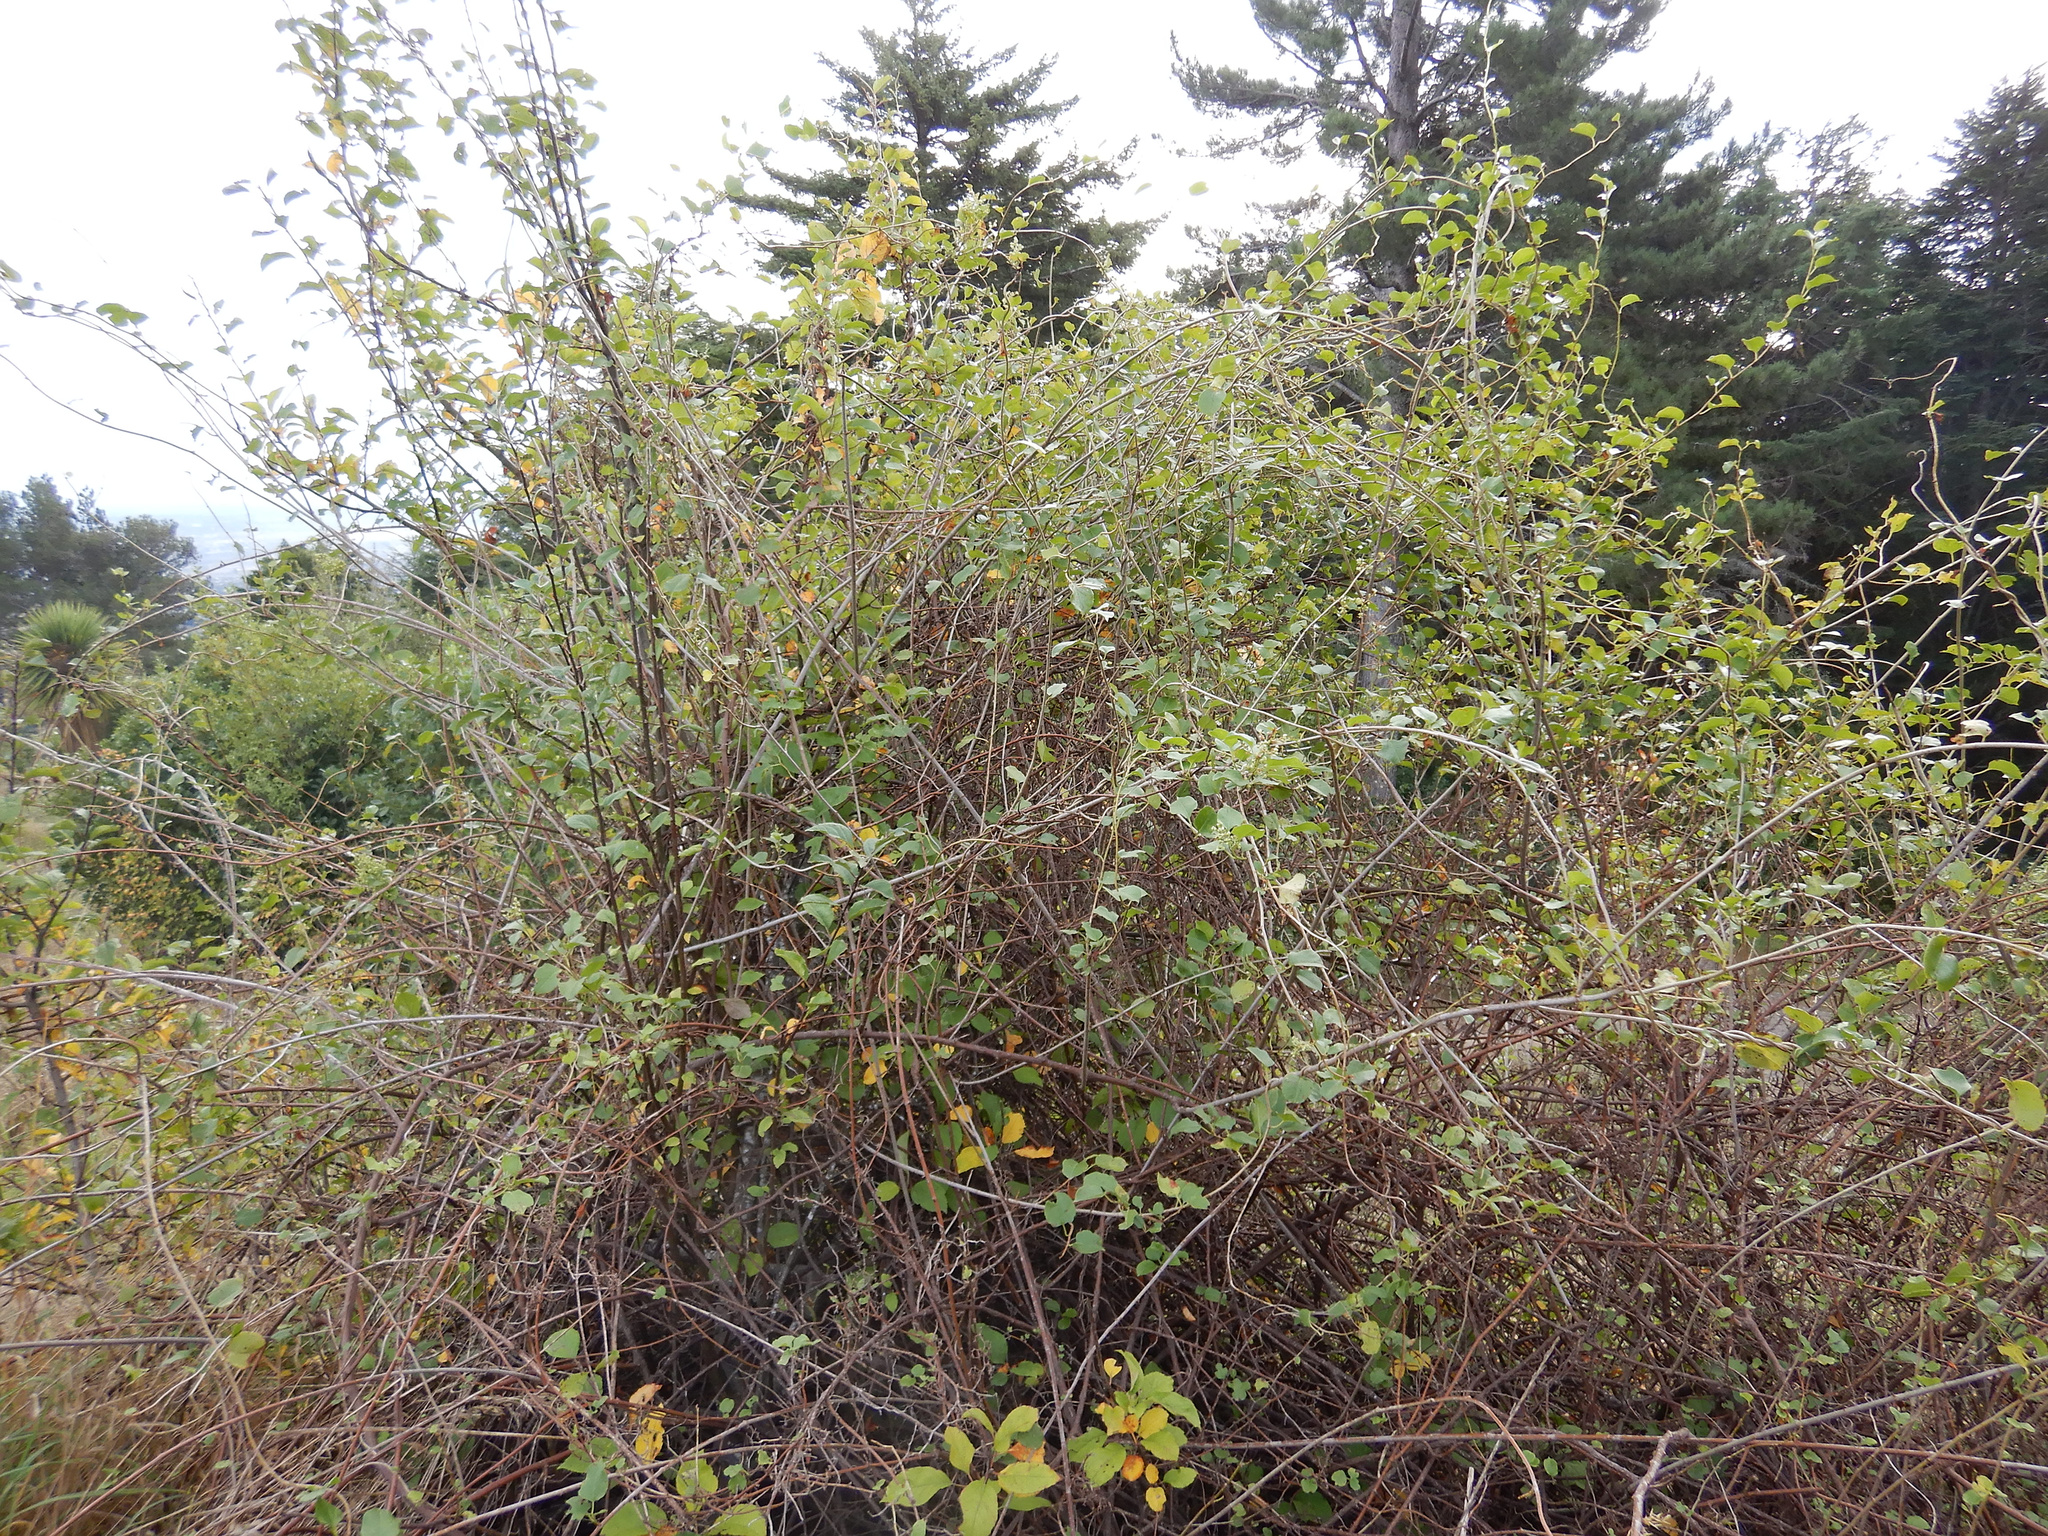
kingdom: Plantae
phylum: Tracheophyta
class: Magnoliopsida
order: Caryophyllales
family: Polygonaceae
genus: Muehlenbeckia
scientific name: Muehlenbeckia australis
